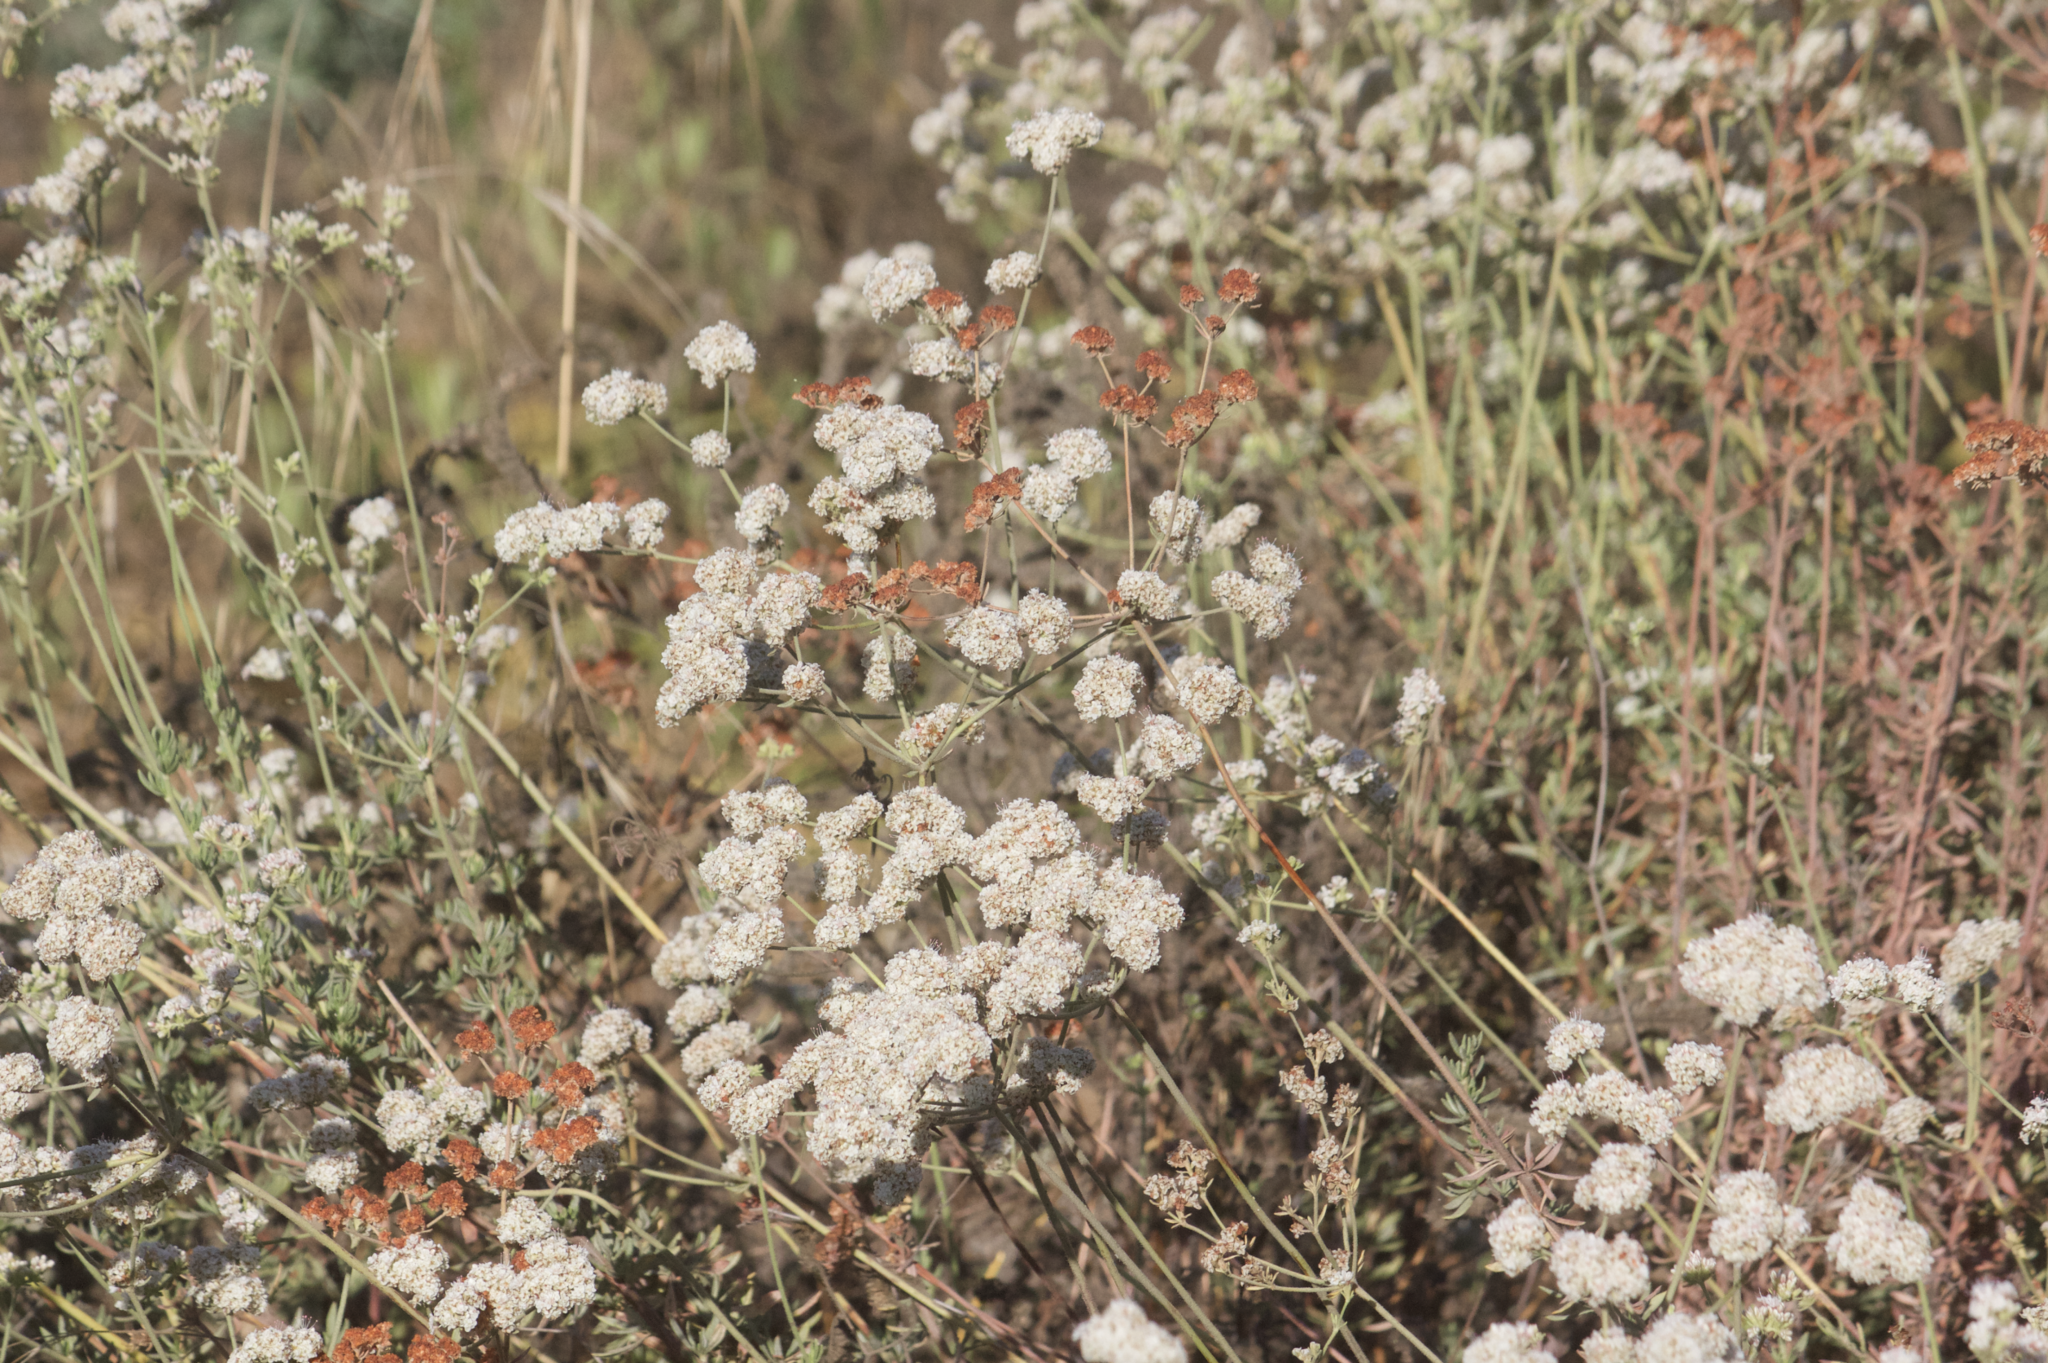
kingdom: Plantae
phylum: Tracheophyta
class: Magnoliopsida
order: Caryophyllales
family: Polygonaceae
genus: Eriogonum
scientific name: Eriogonum fasciculatum
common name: California wild buckwheat
